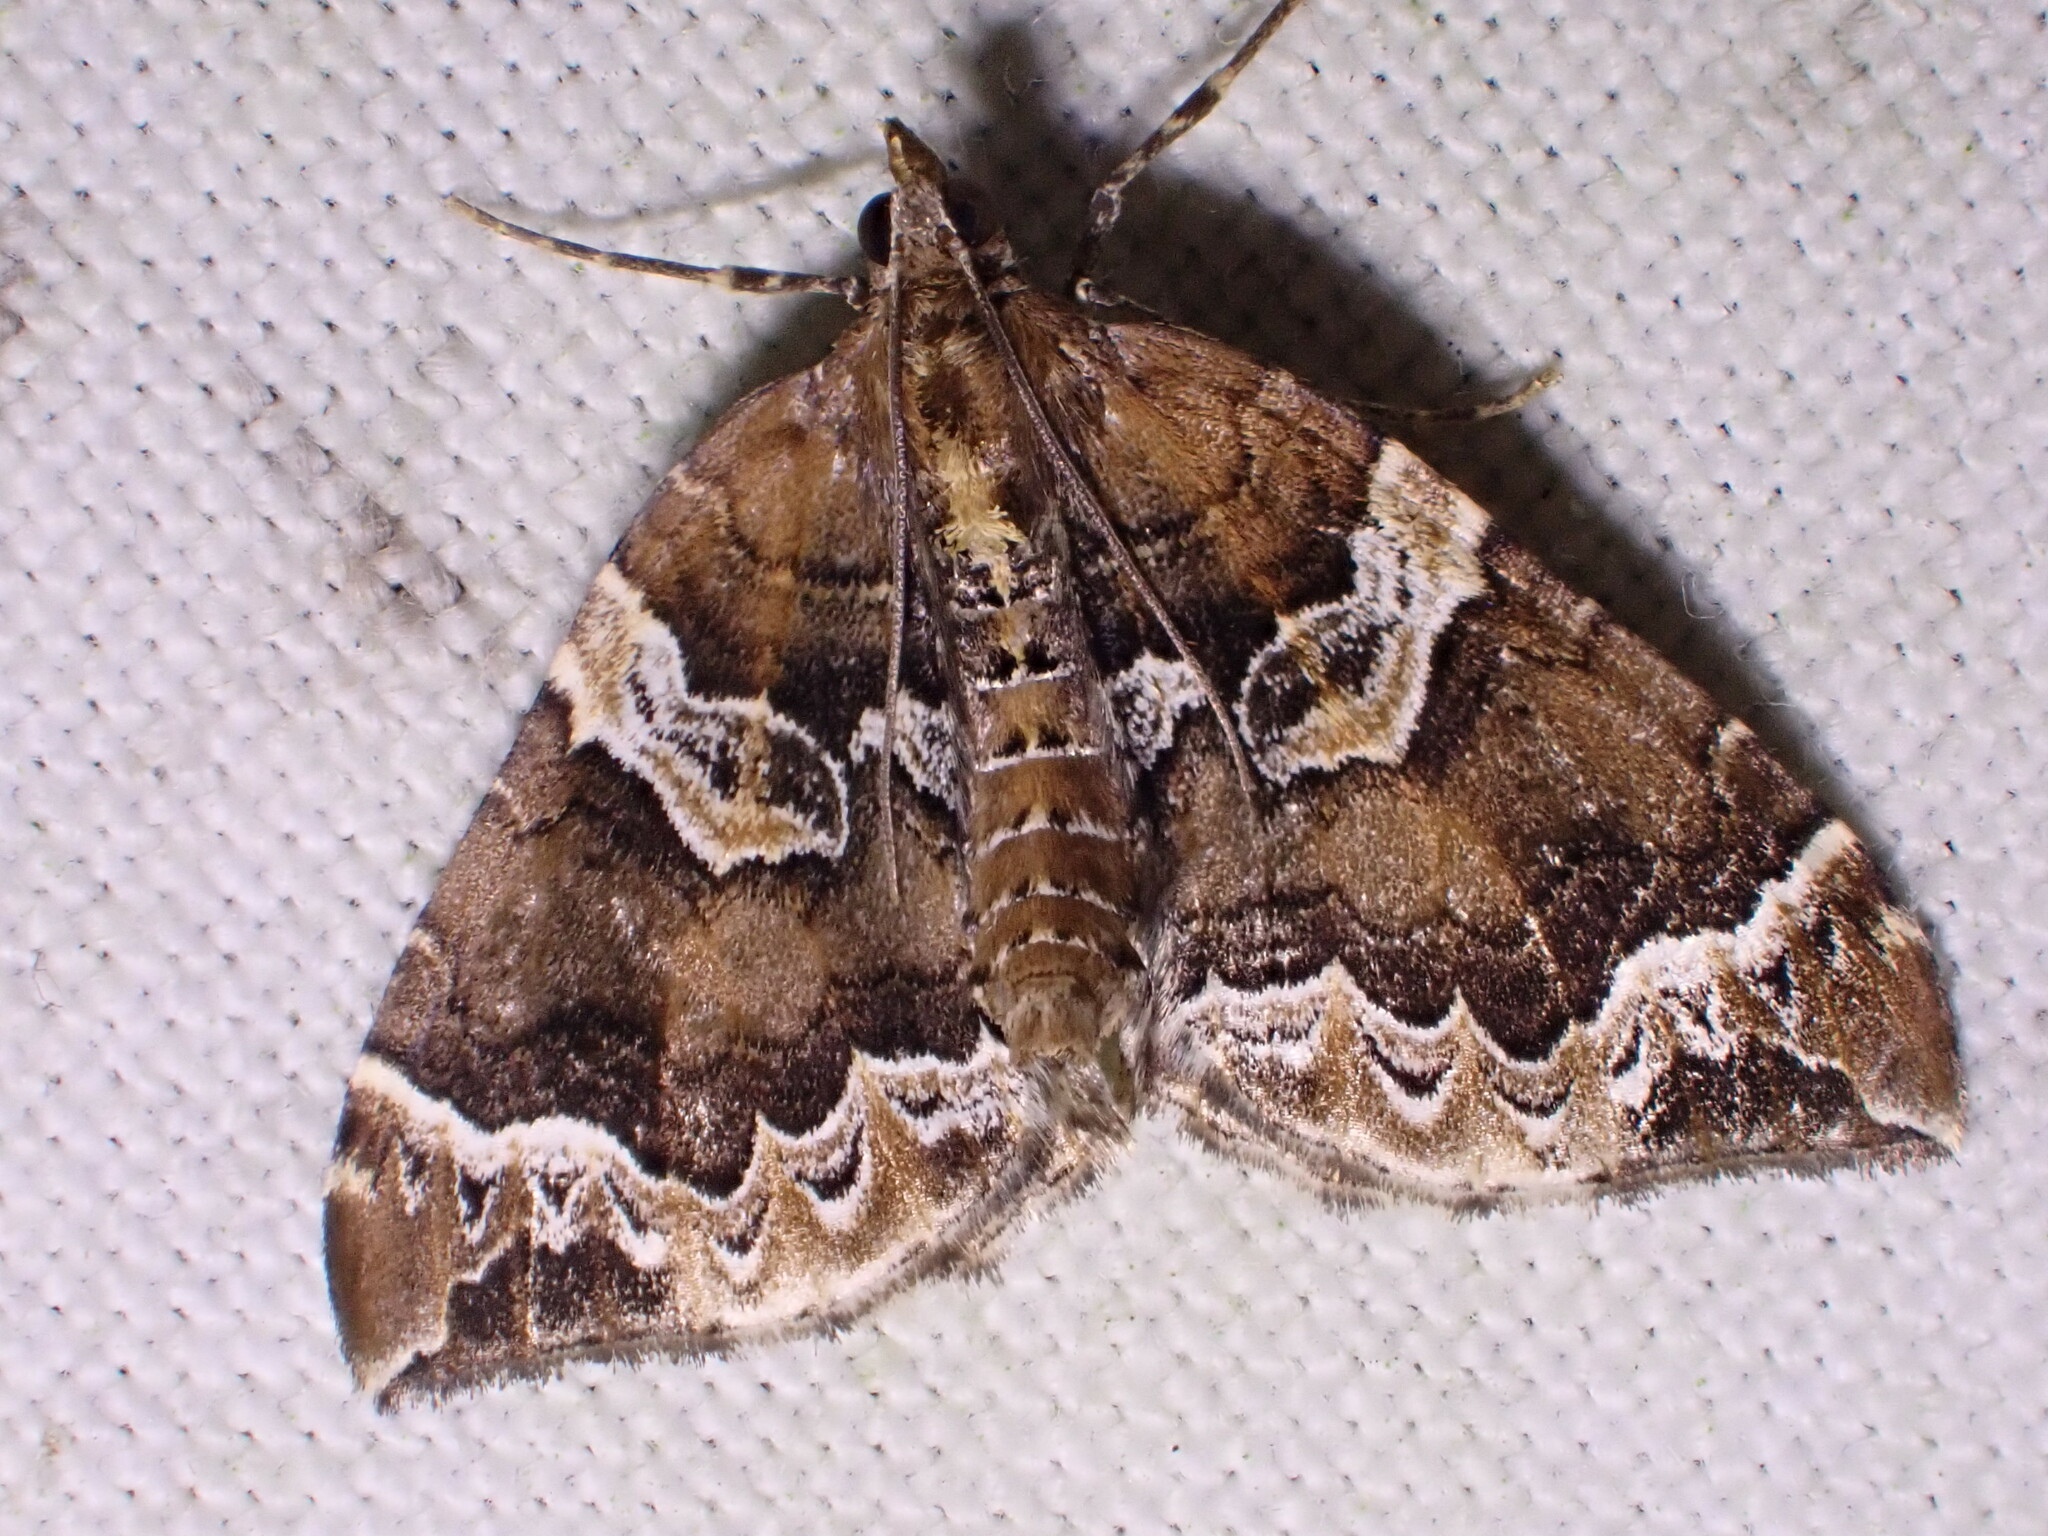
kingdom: Animalia
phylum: Arthropoda
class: Insecta
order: Lepidoptera
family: Geometridae
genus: Eulithis
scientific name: Eulithis prunata
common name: Phoenix
